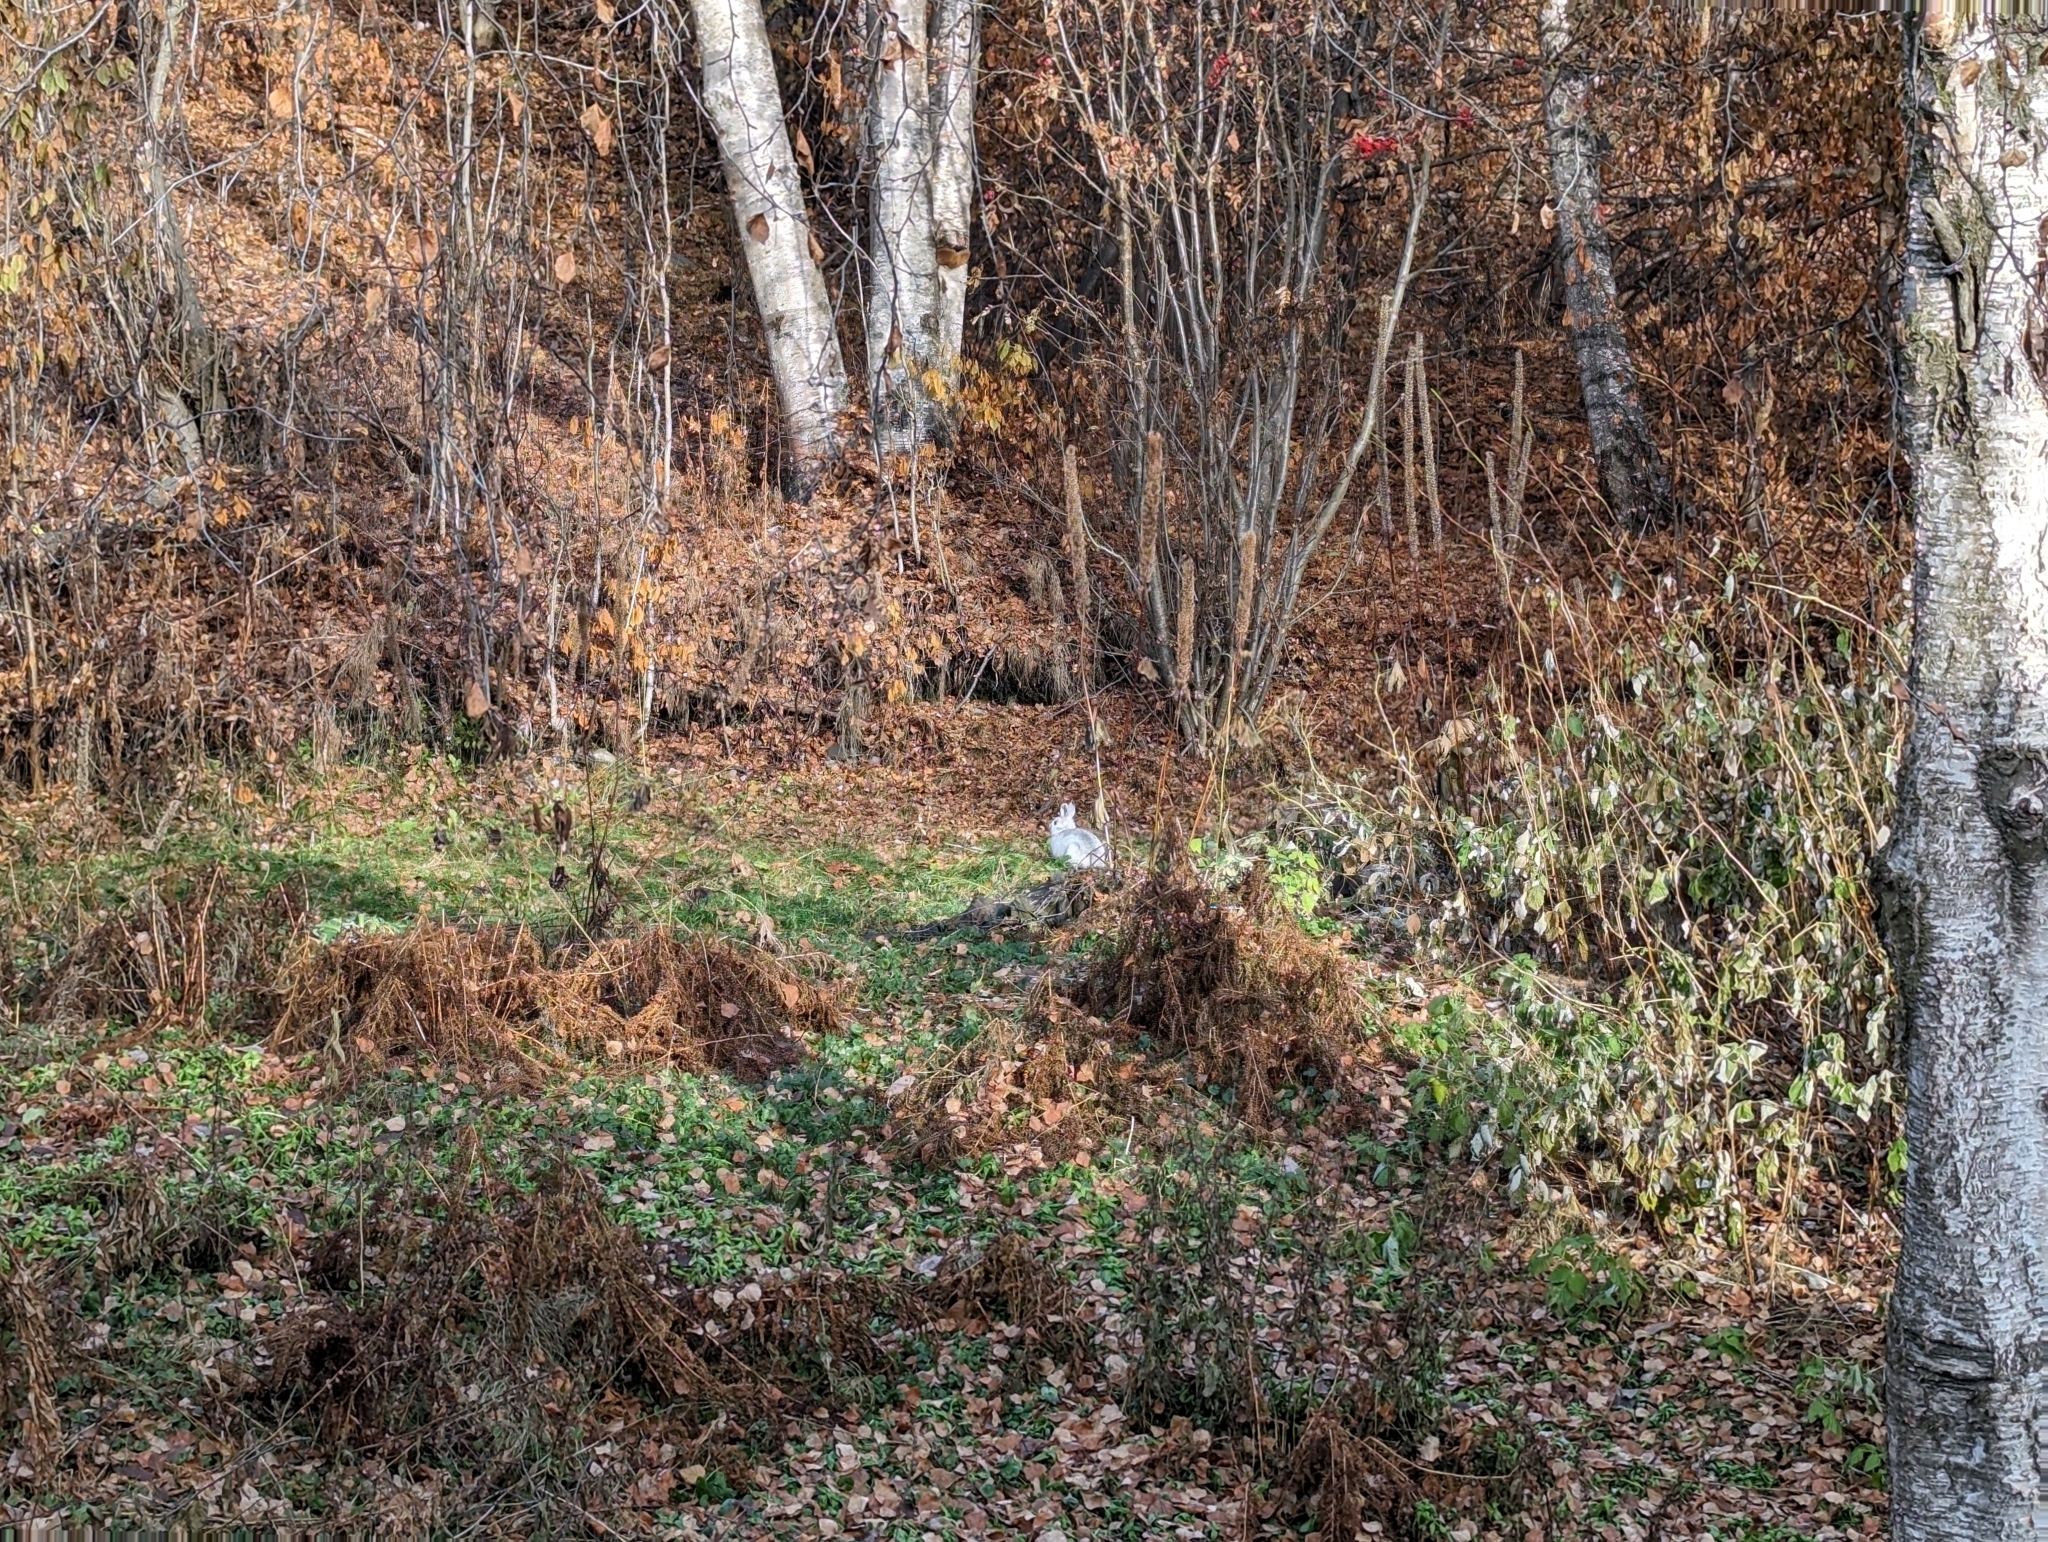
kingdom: Animalia
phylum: Chordata
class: Mammalia
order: Lagomorpha
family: Leporidae
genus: Lepus
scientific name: Lepus americanus
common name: Snowshoe hare
